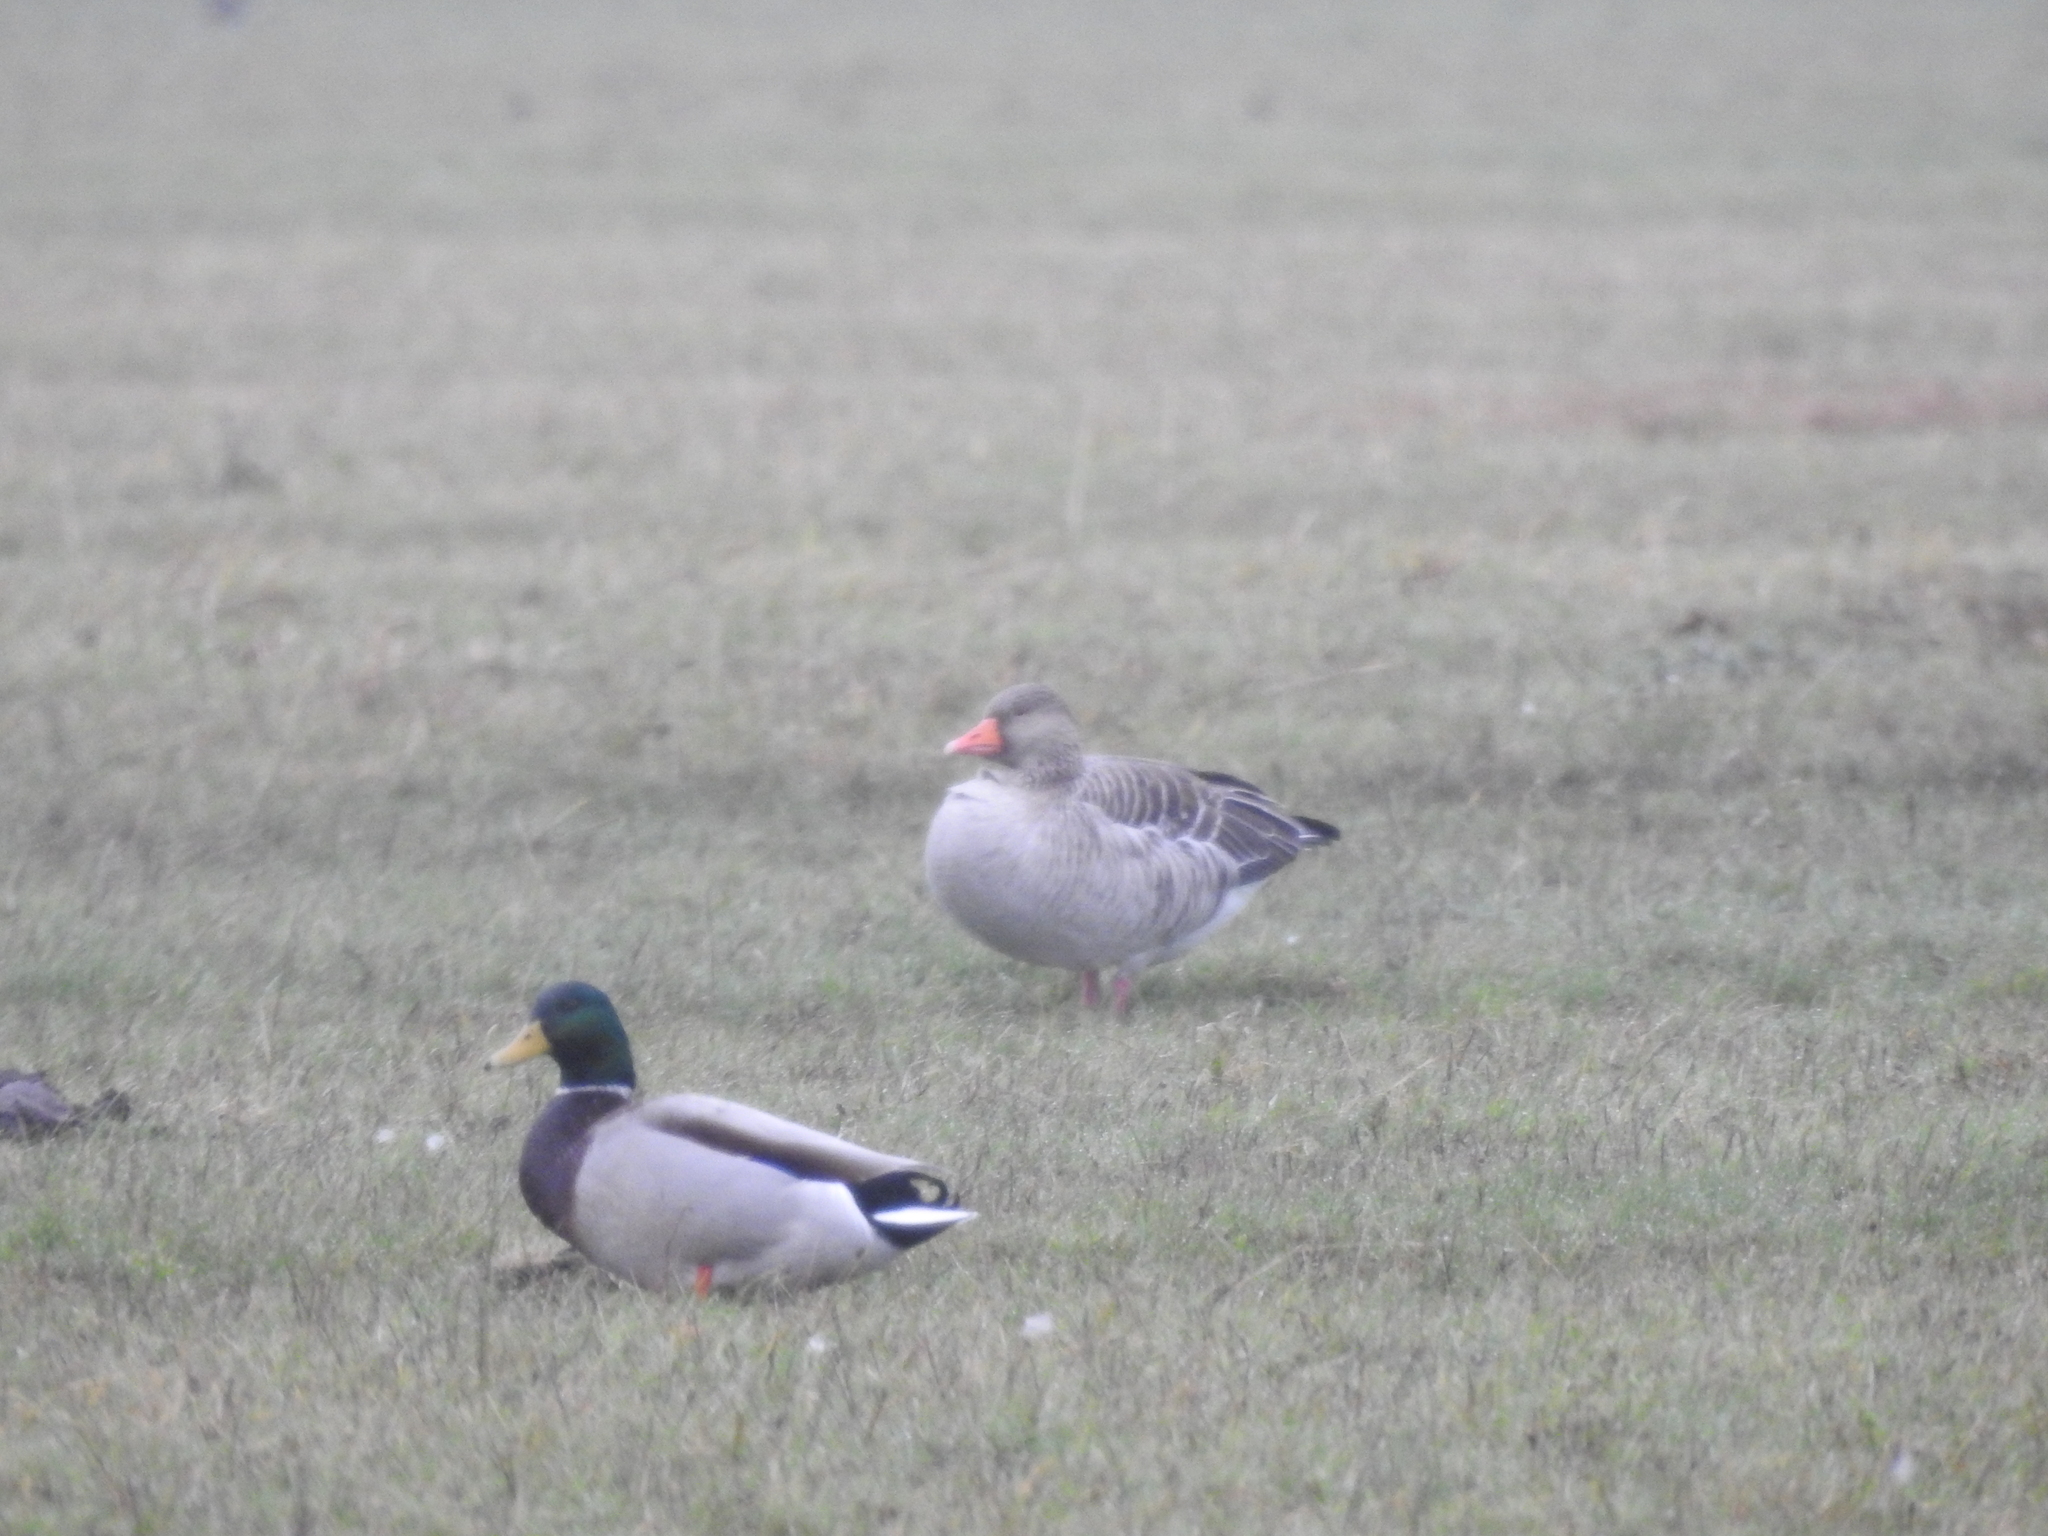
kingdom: Animalia
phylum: Chordata
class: Aves
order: Anseriformes
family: Anatidae
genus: Anser
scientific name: Anser anser
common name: Greylag goose
